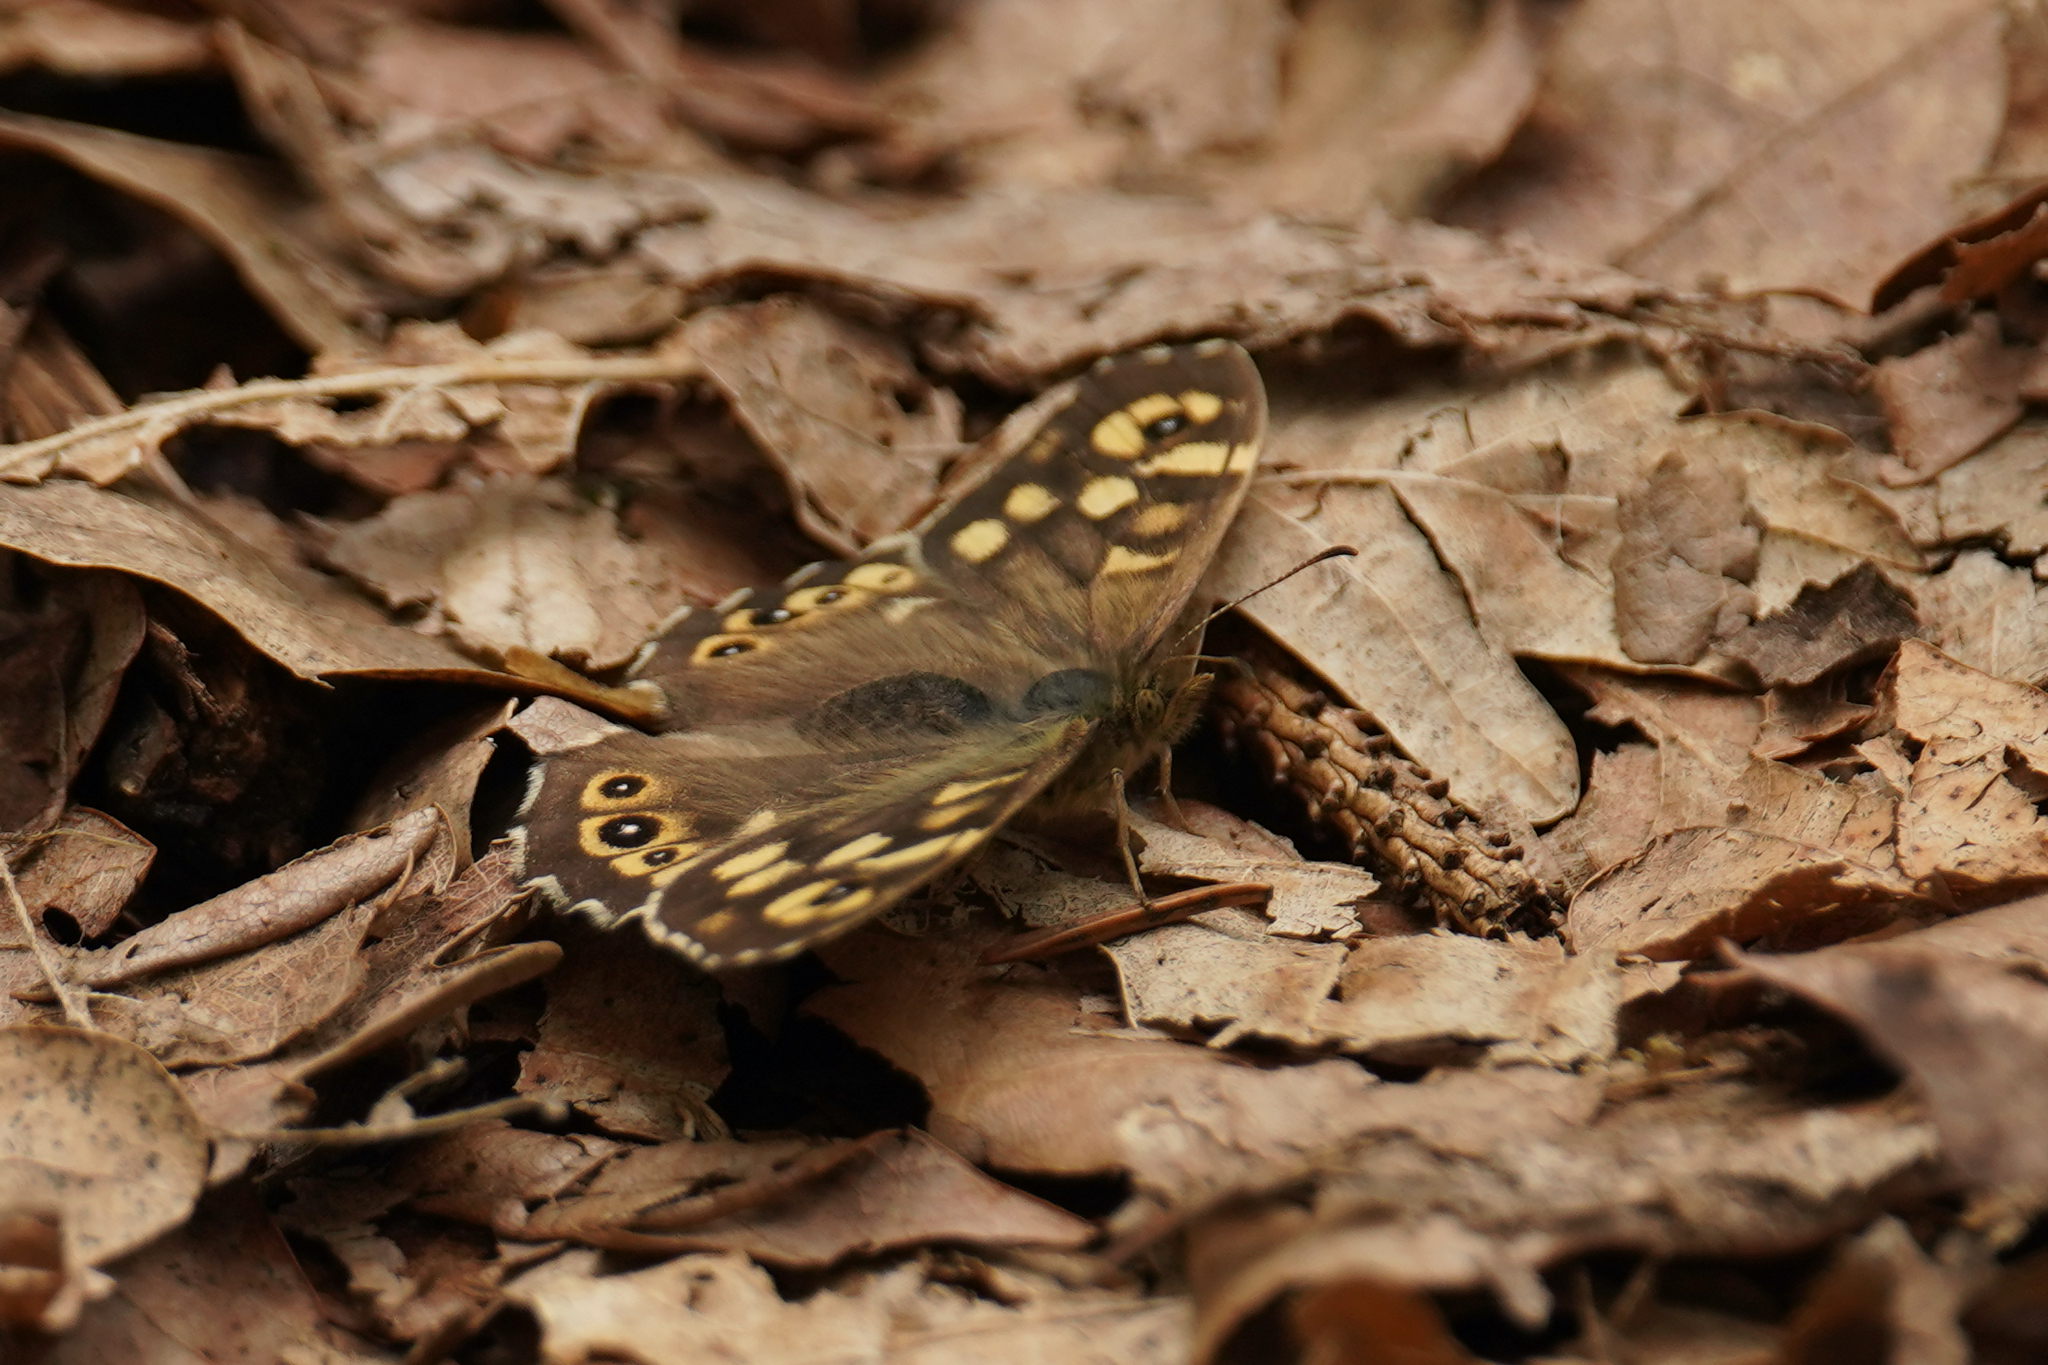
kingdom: Animalia
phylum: Arthropoda
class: Insecta
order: Lepidoptera
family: Nymphalidae
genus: Pararge
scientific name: Pararge aegeria
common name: Speckled wood
